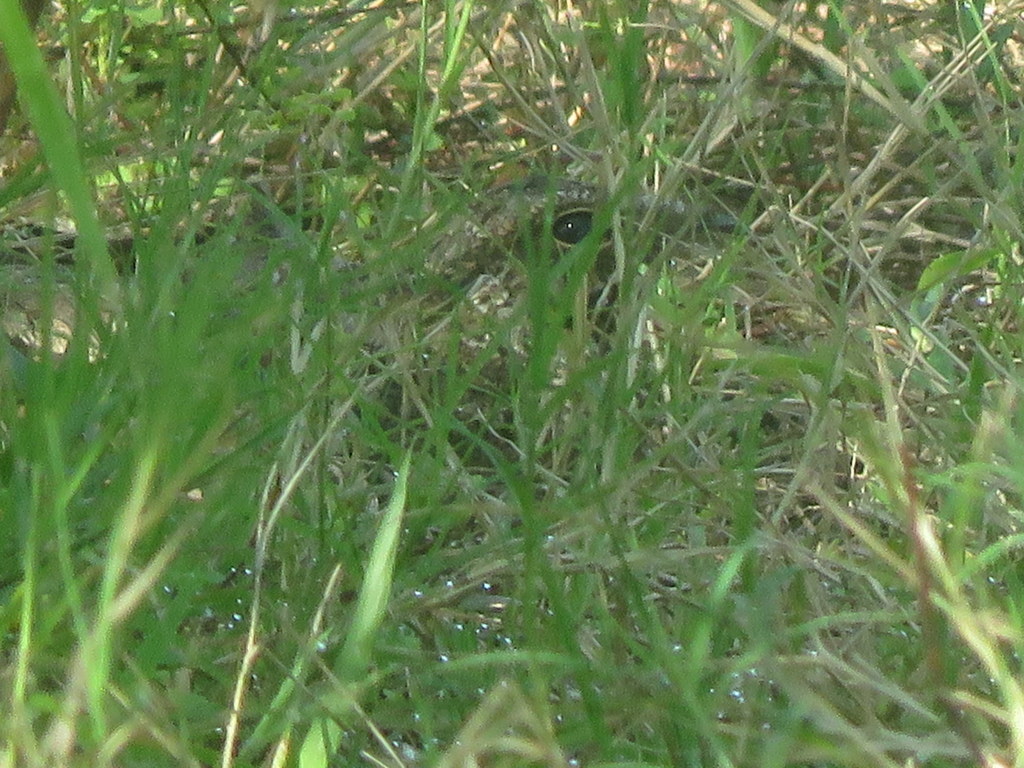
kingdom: Animalia
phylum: Chordata
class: Aves
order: Caprimulgiformes
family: Caprimulgidae
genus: Hydropsalis
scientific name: Hydropsalis torquata
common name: Scissor-tailed nightjar
